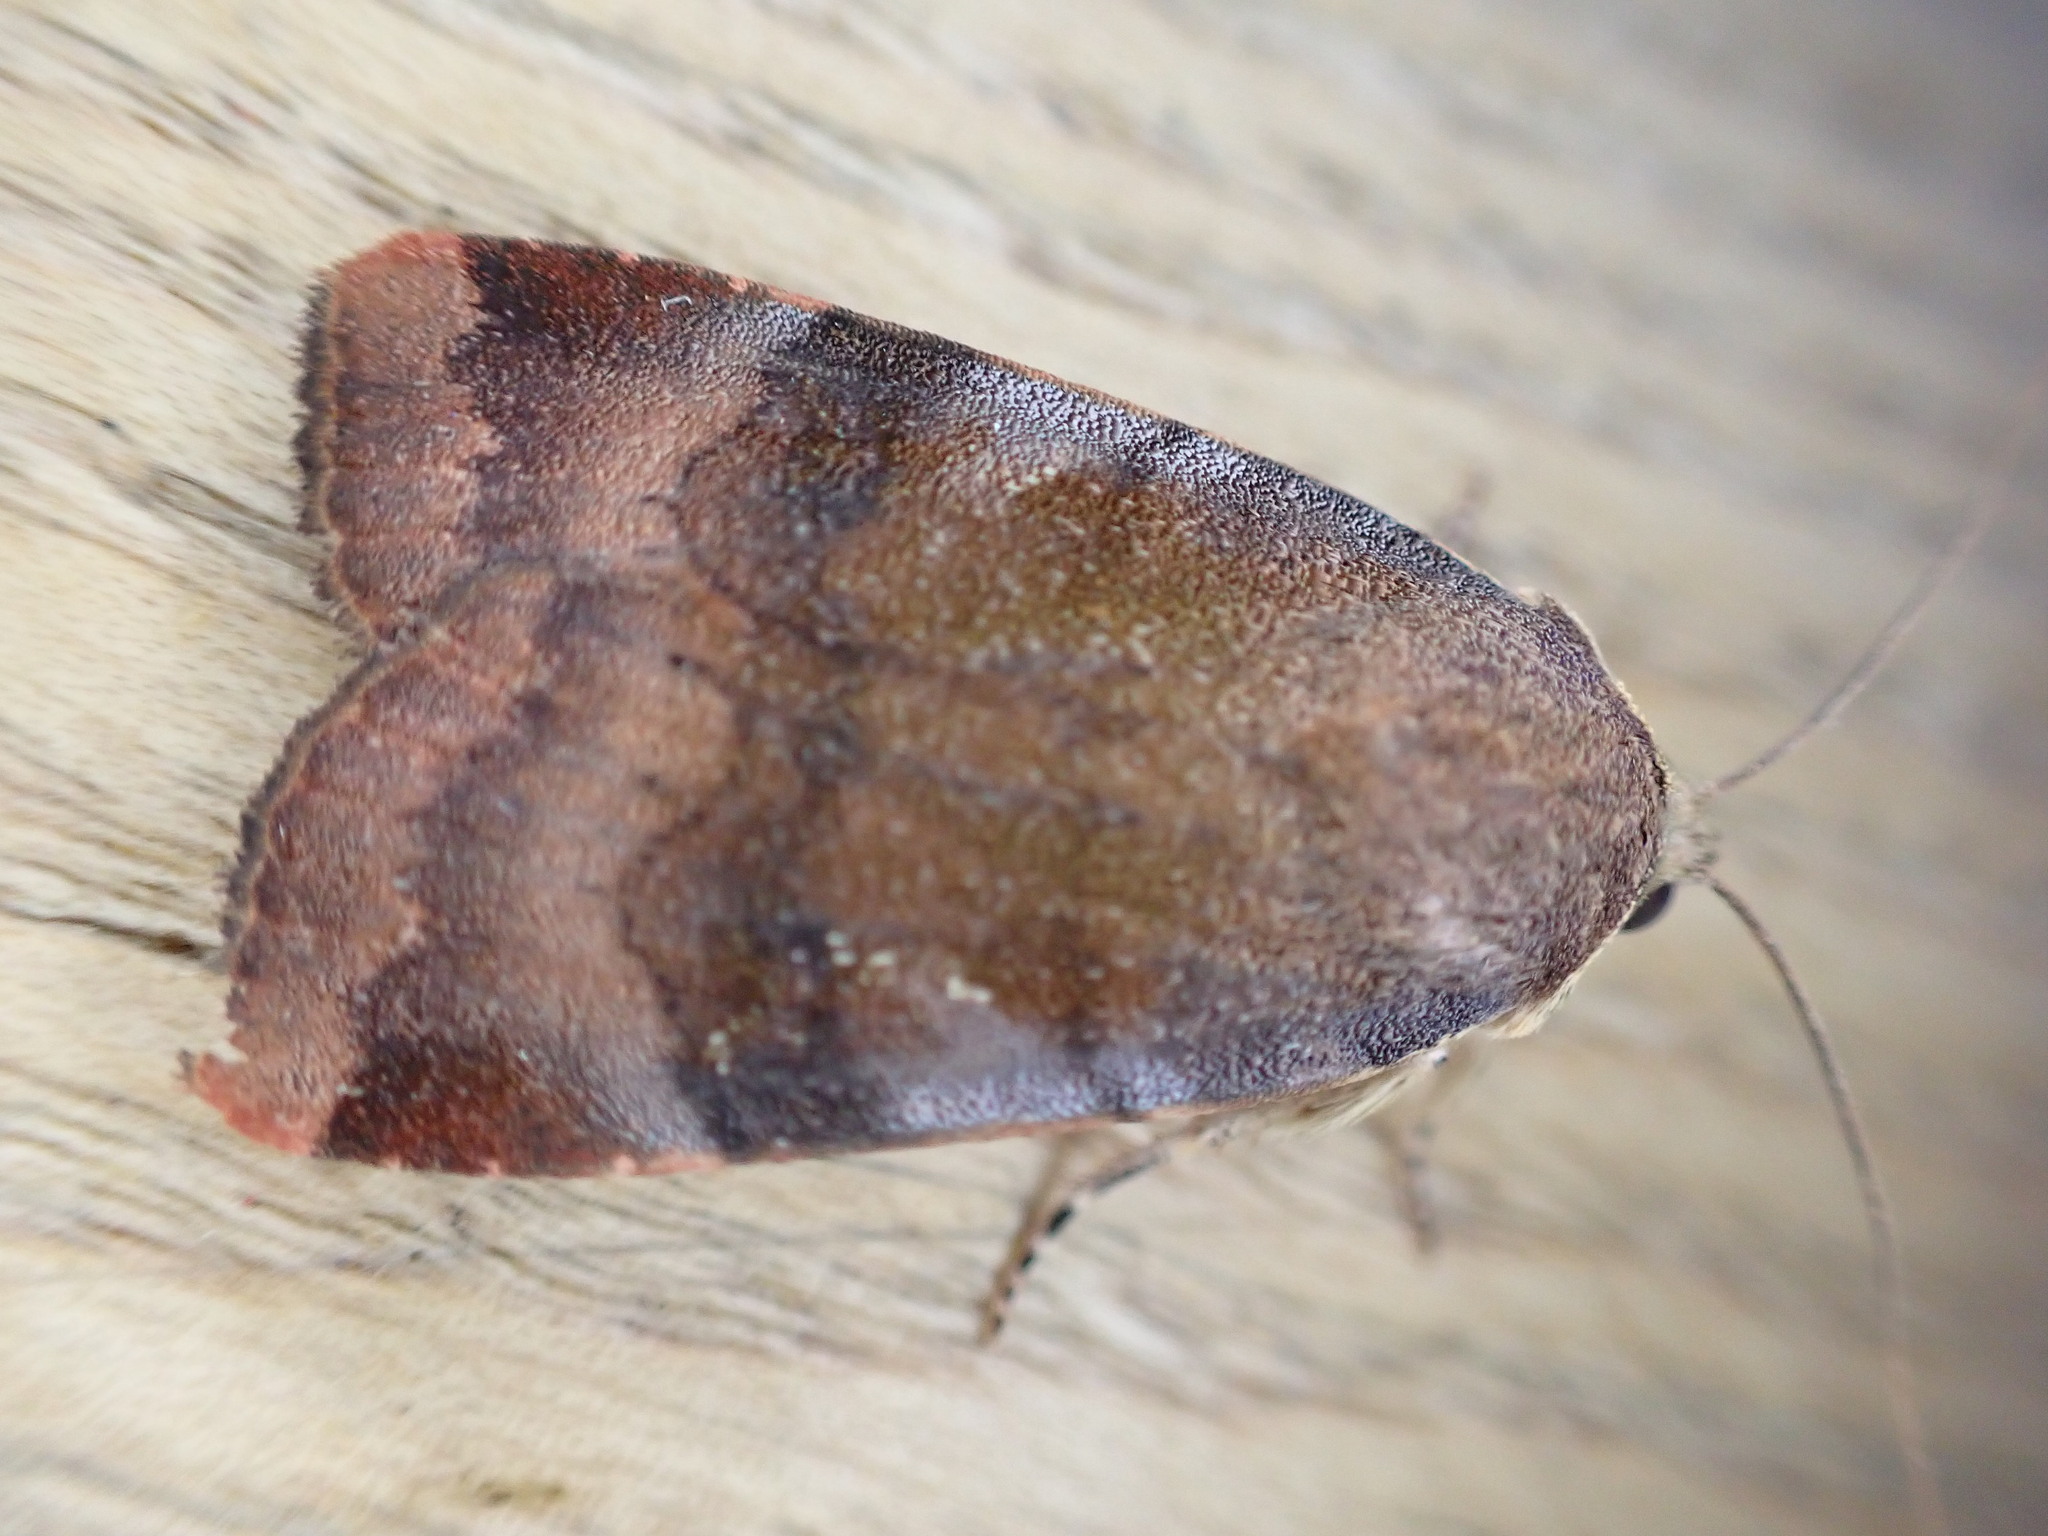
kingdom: Animalia
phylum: Arthropoda
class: Insecta
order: Lepidoptera
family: Noctuidae
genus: Noctua
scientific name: Noctua janthe
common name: Lesser broad-bordered yellow underwing
